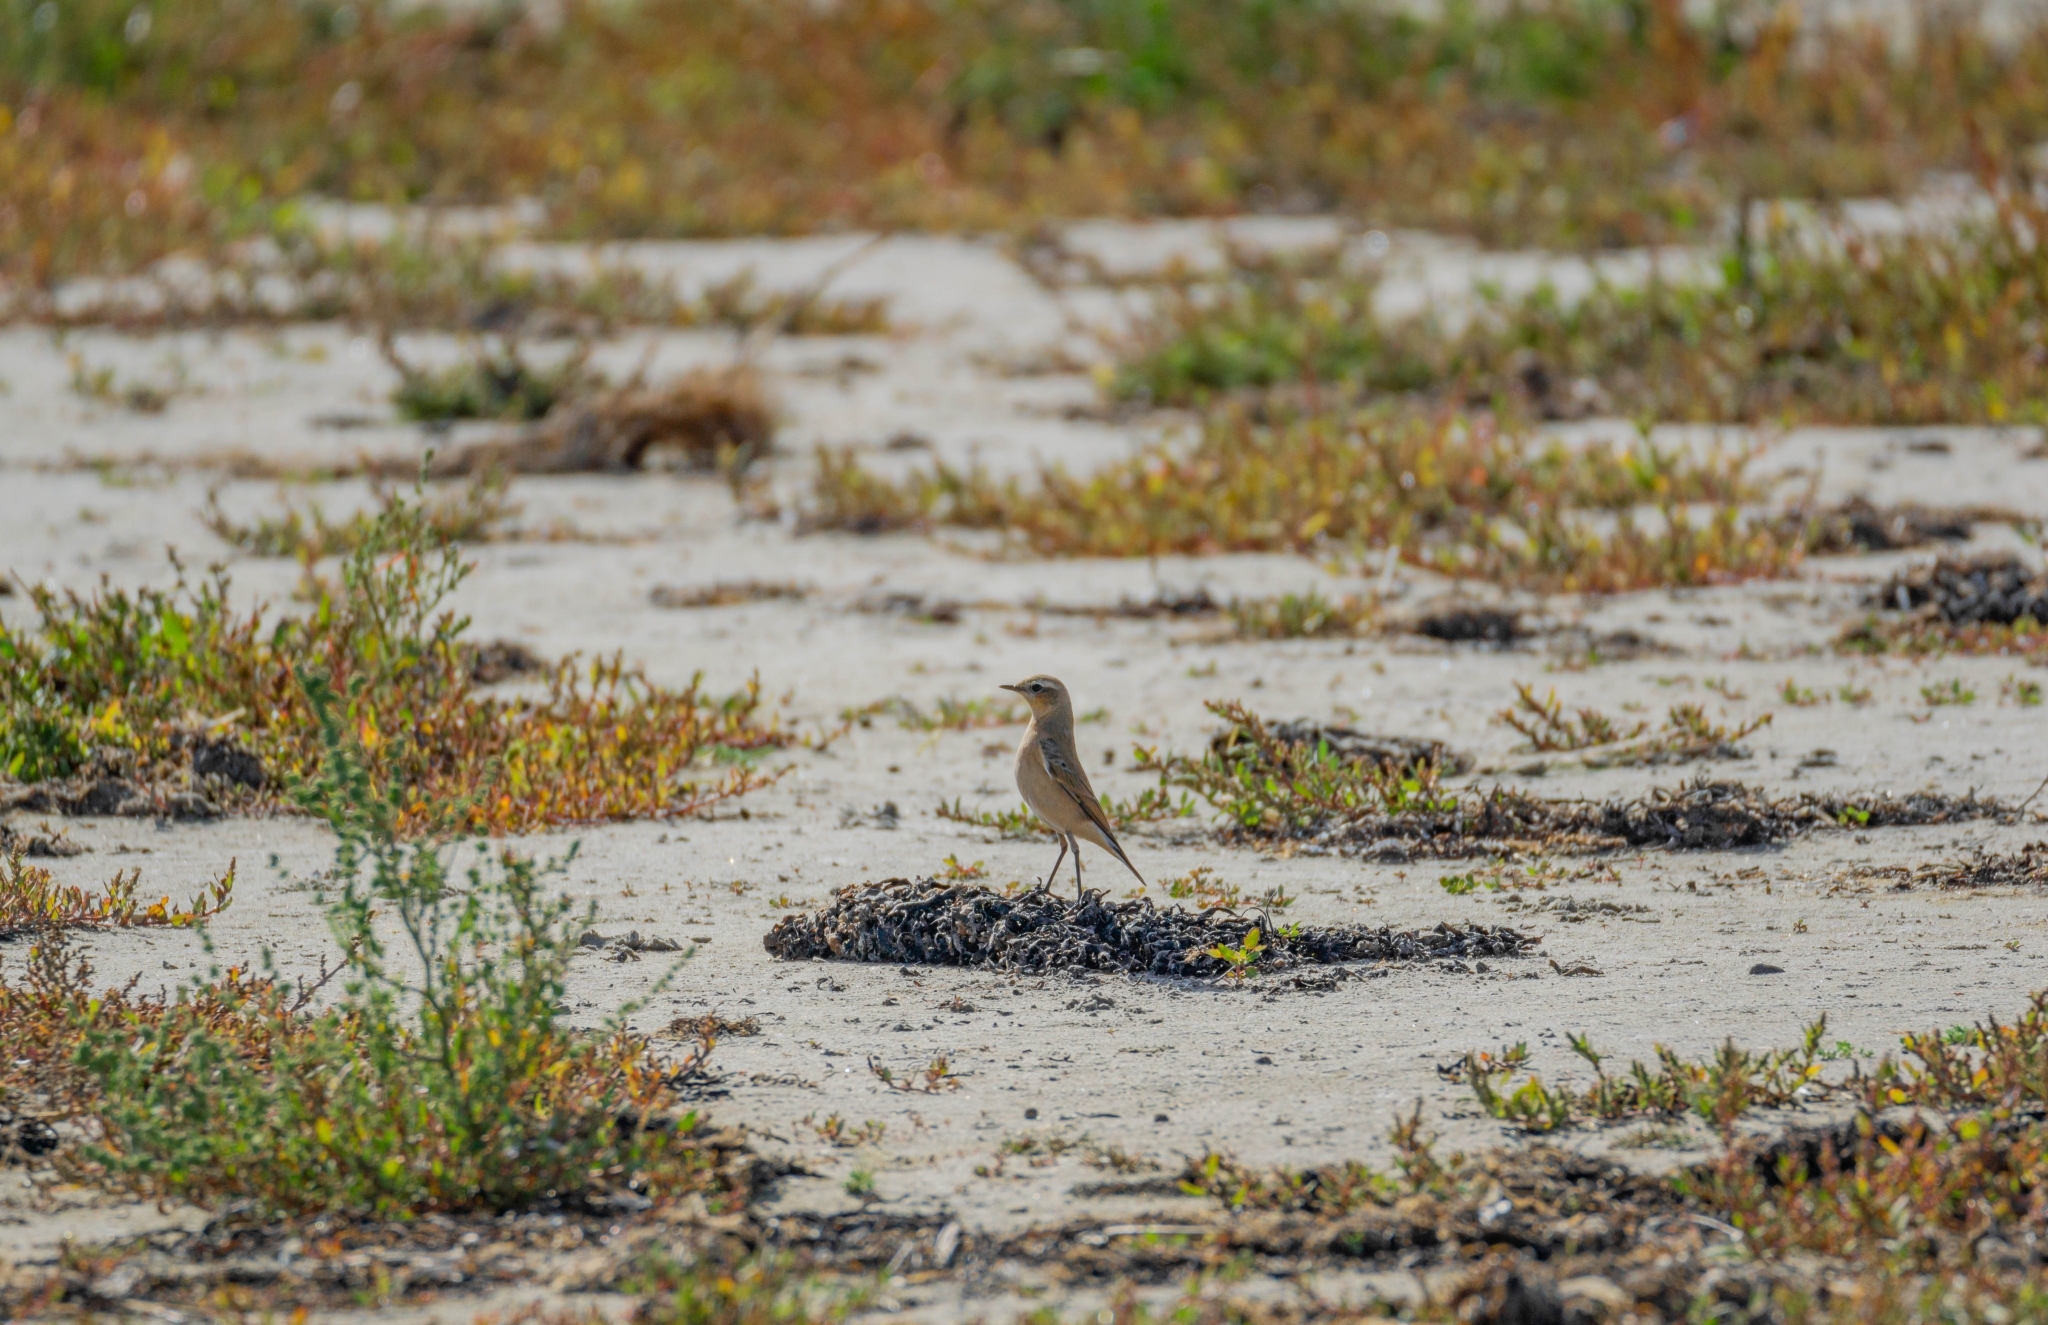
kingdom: Animalia
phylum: Chordata
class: Aves
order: Passeriformes
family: Muscicapidae
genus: Oenanthe
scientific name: Oenanthe oenanthe
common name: Northern wheatear
